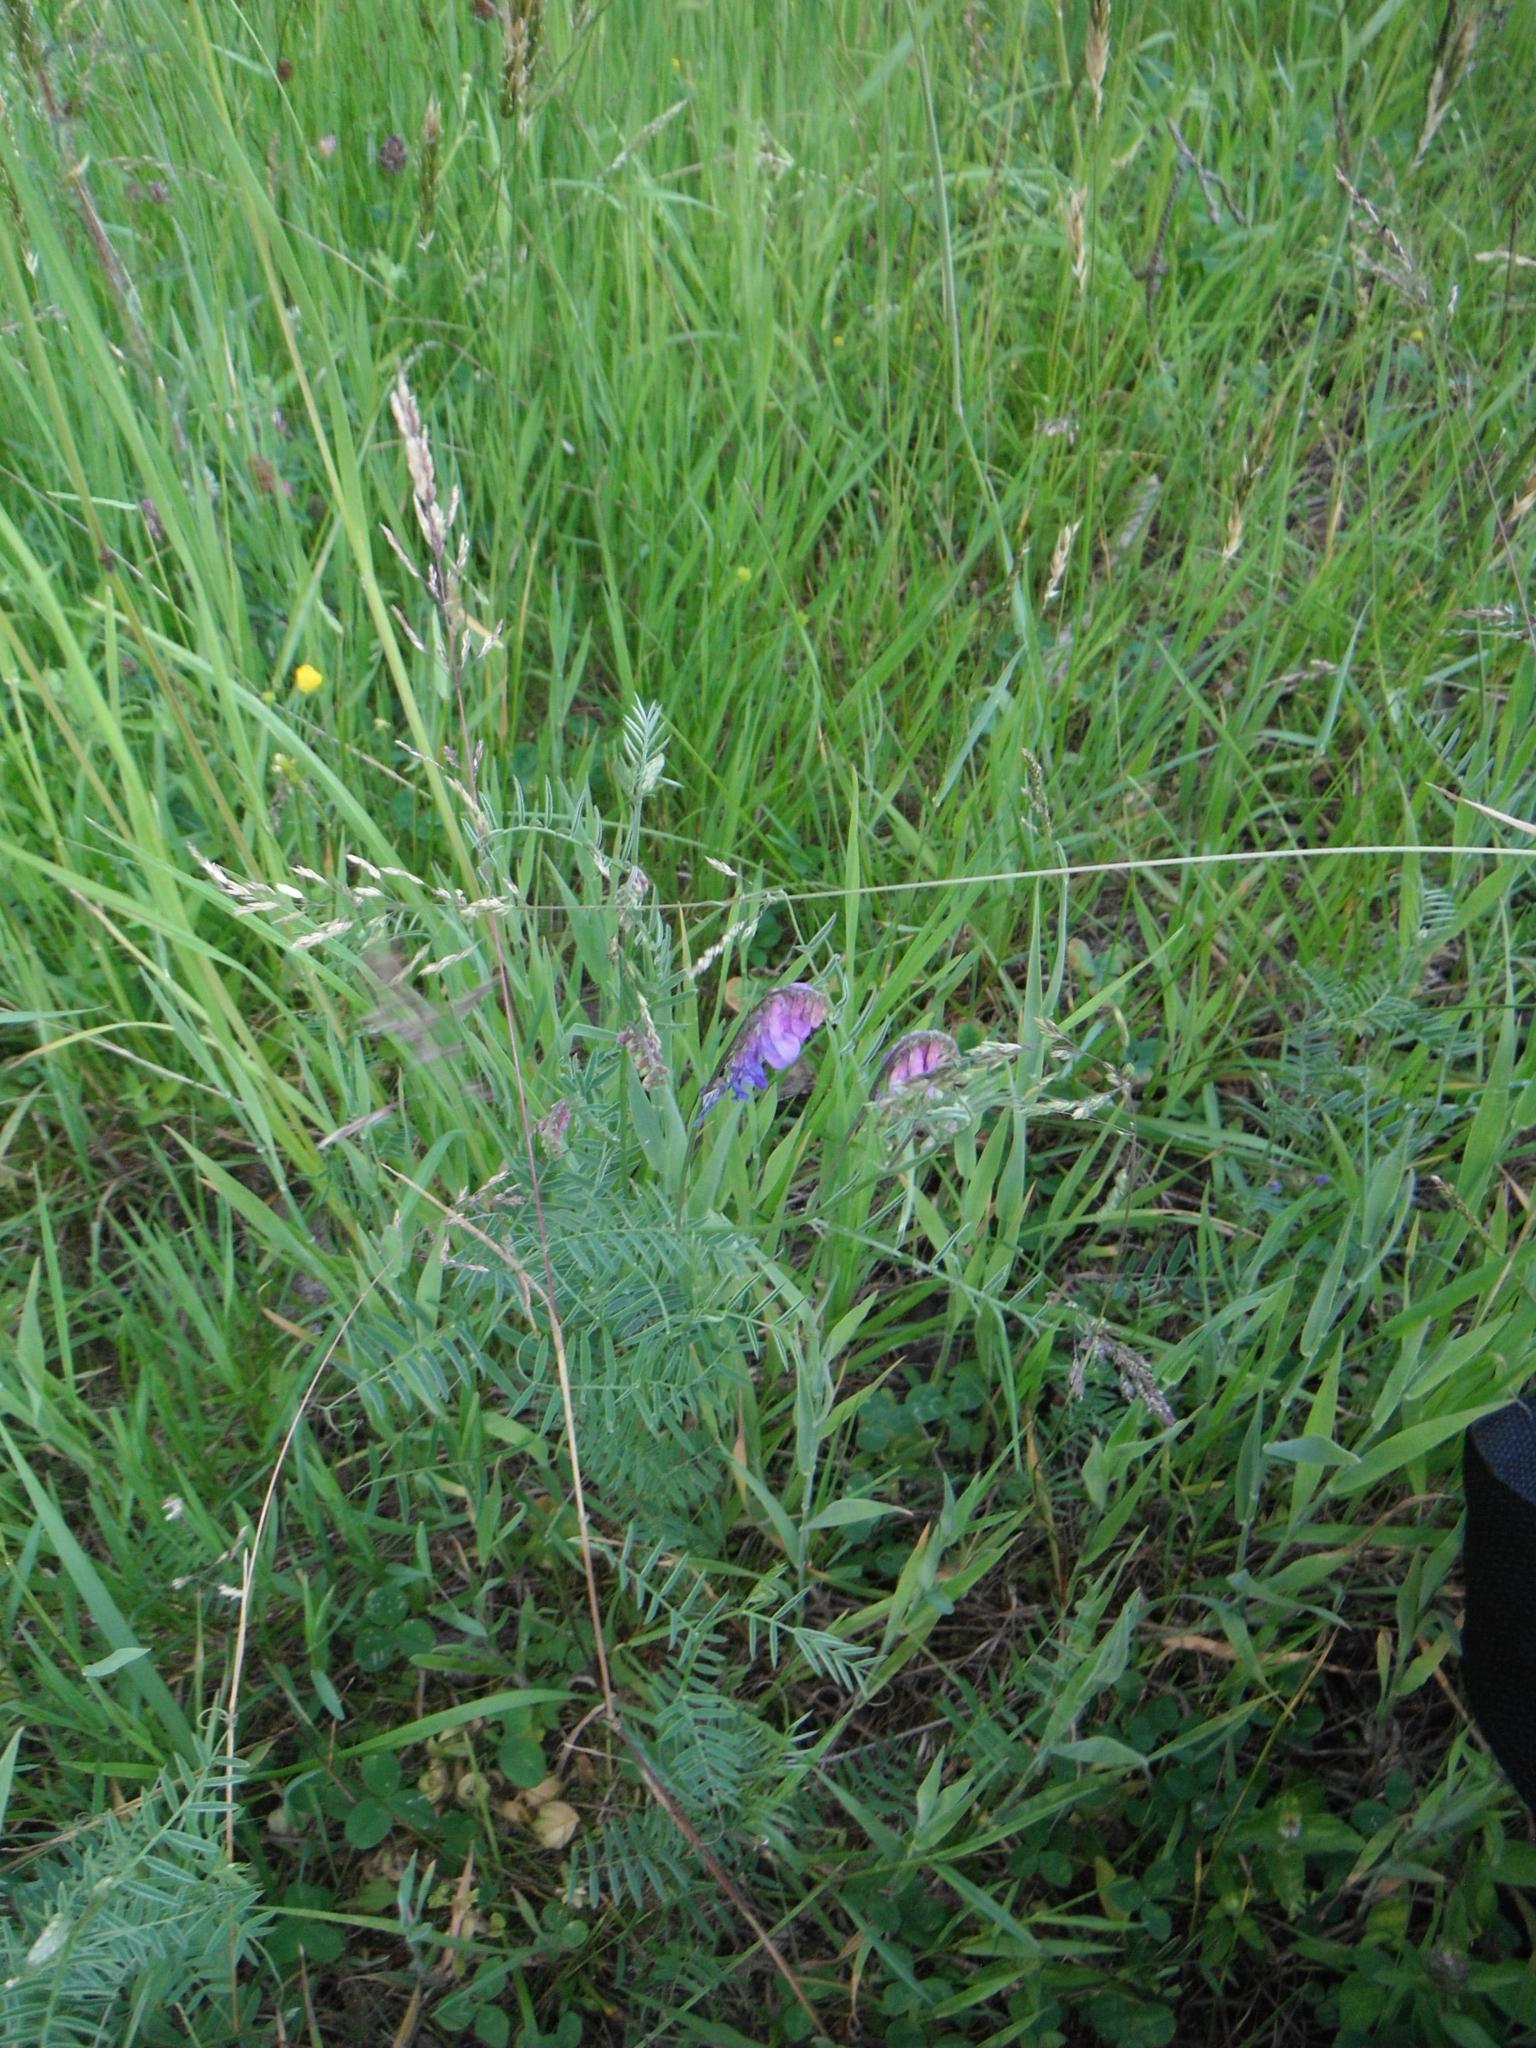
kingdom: Plantae
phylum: Tracheophyta
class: Magnoliopsida
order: Fabales
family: Fabaceae
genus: Vicia
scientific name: Vicia cracca
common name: Bird vetch
